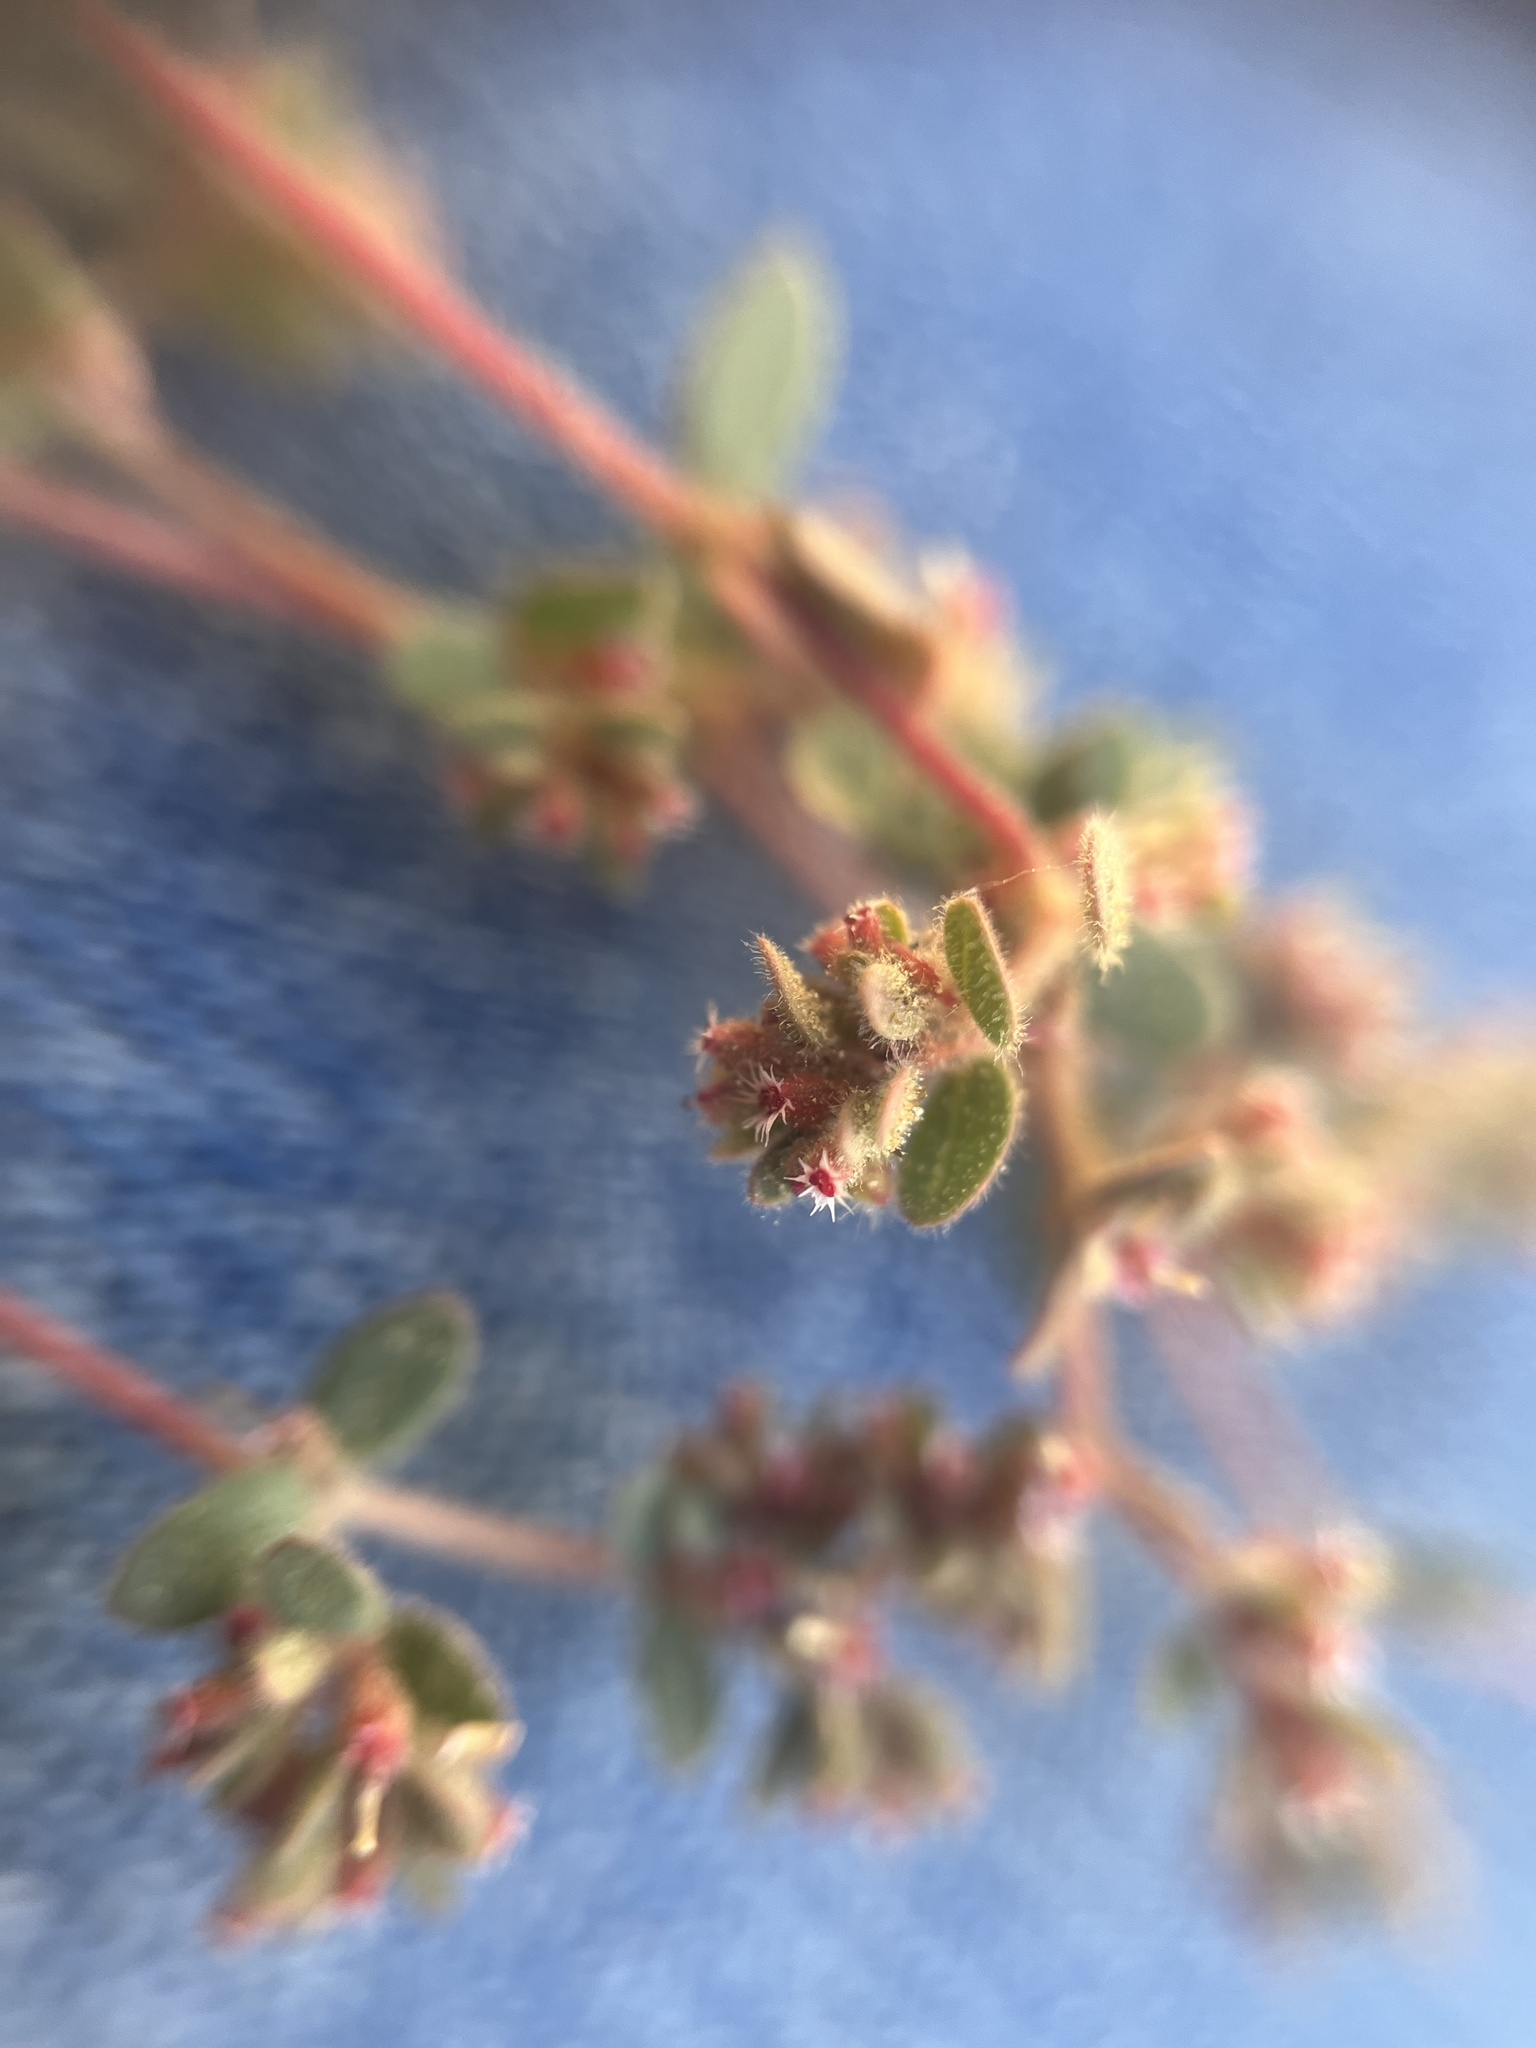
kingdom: Plantae
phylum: Tracheophyta
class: Magnoliopsida
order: Malpighiales
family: Euphorbiaceae
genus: Euphorbia
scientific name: Euphorbia setiloba
